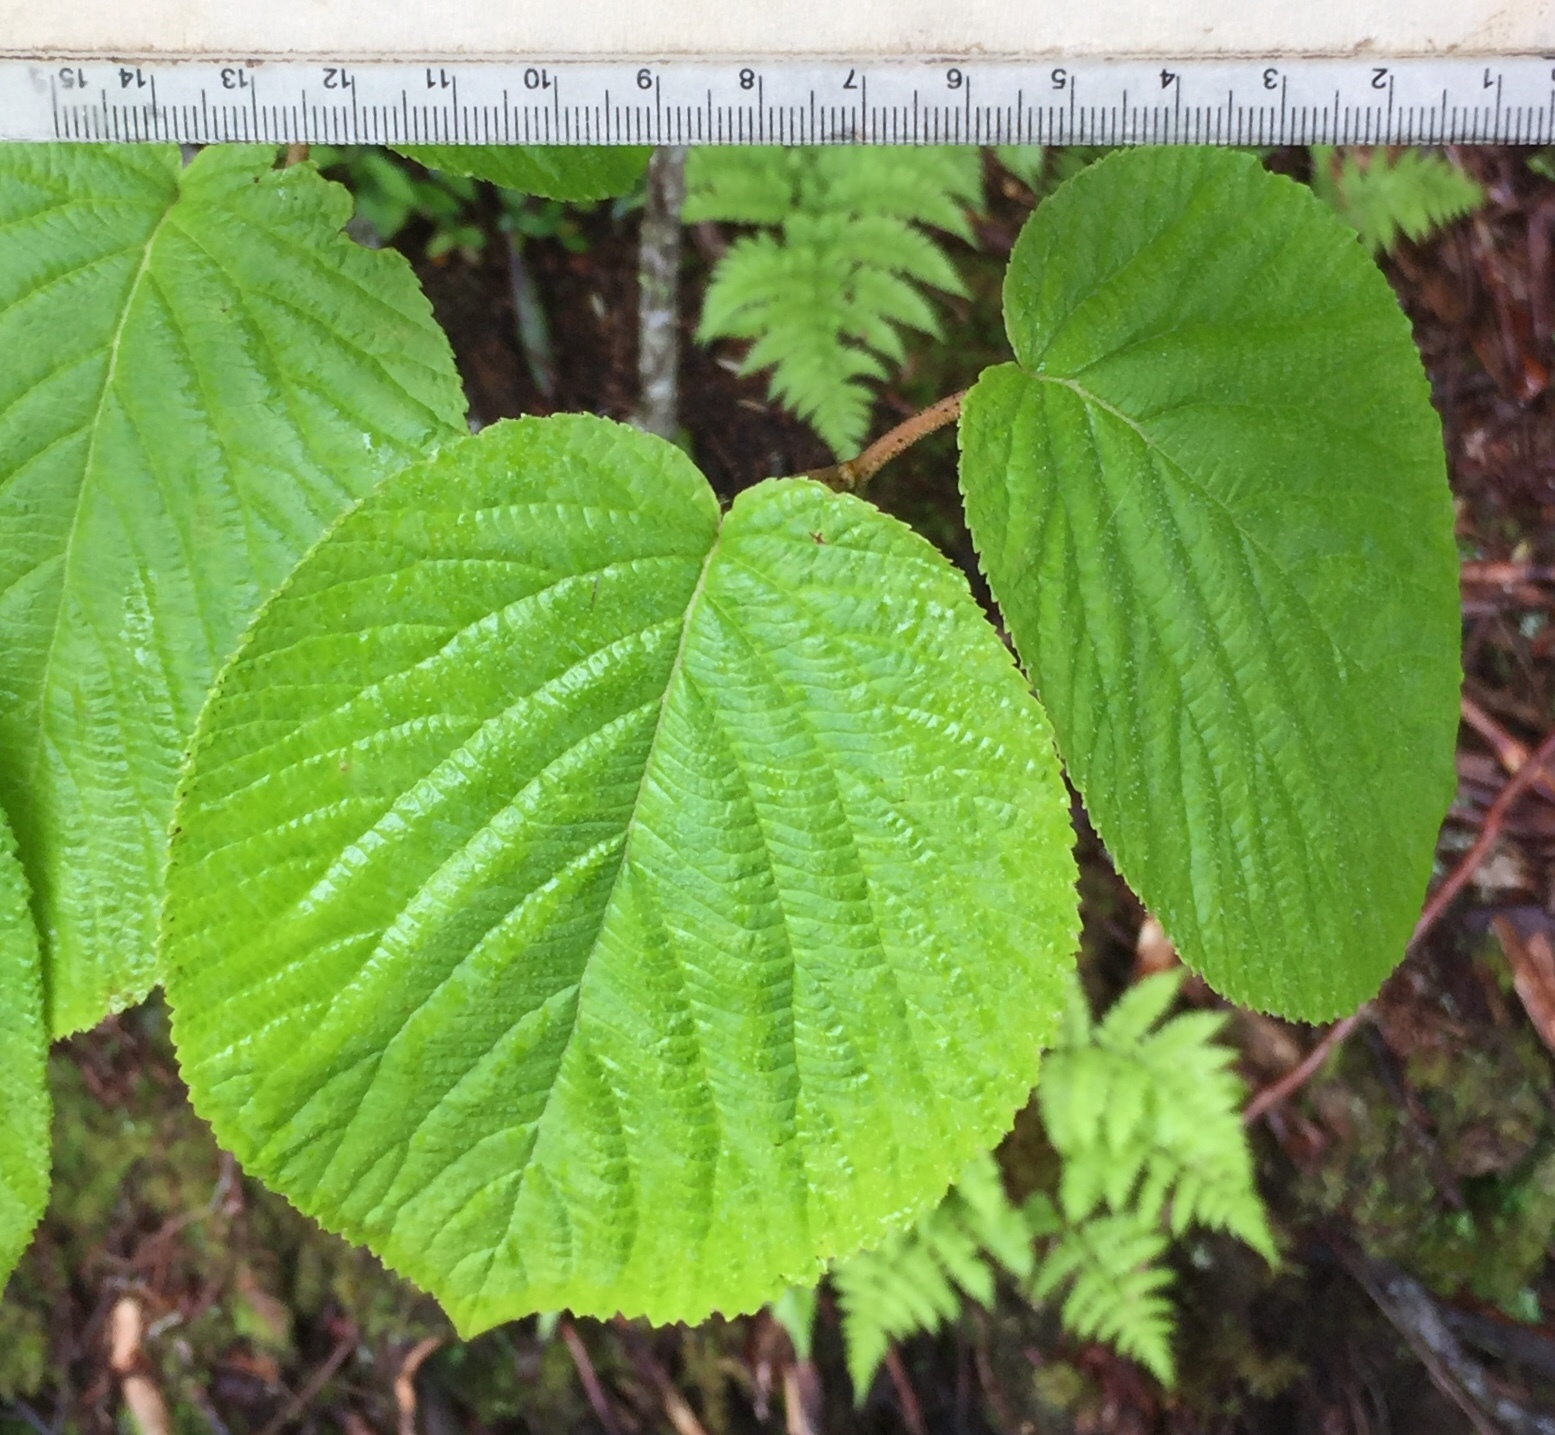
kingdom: Plantae
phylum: Tracheophyta
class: Magnoliopsida
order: Dipsacales
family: Viburnaceae
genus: Viburnum
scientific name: Viburnum lantanoides
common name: Hobblebush
